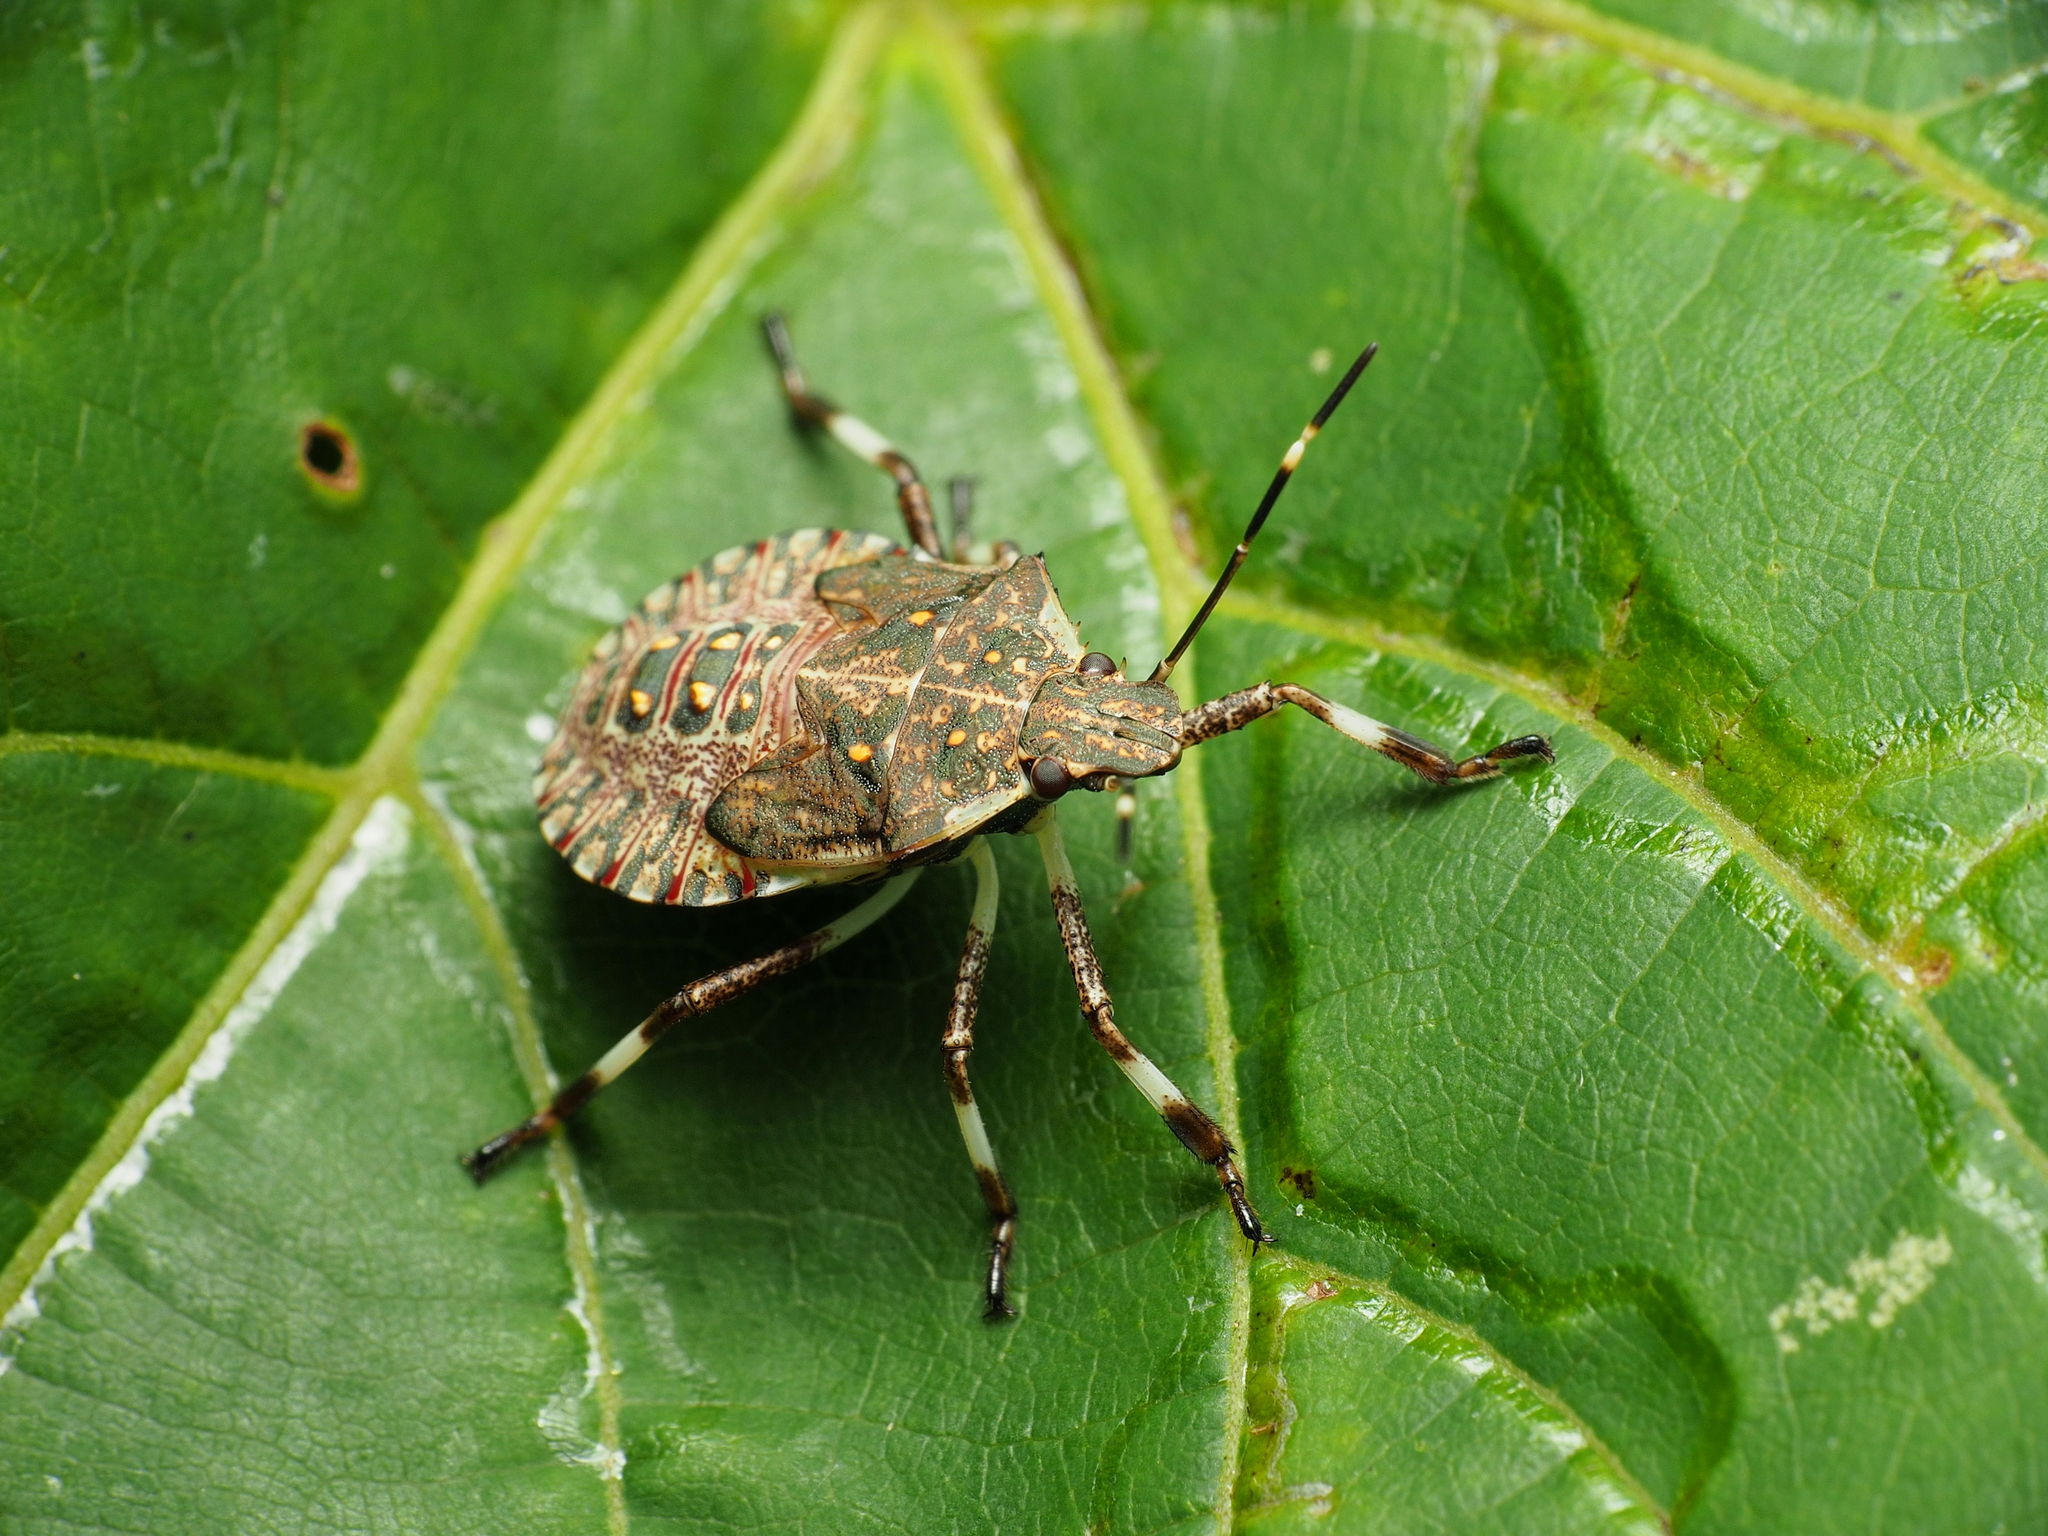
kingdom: Animalia
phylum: Arthropoda
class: Insecta
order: Hemiptera
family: Pentatomidae
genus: Halyomorpha
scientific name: Halyomorpha halys
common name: Brown marmorated stink bug
